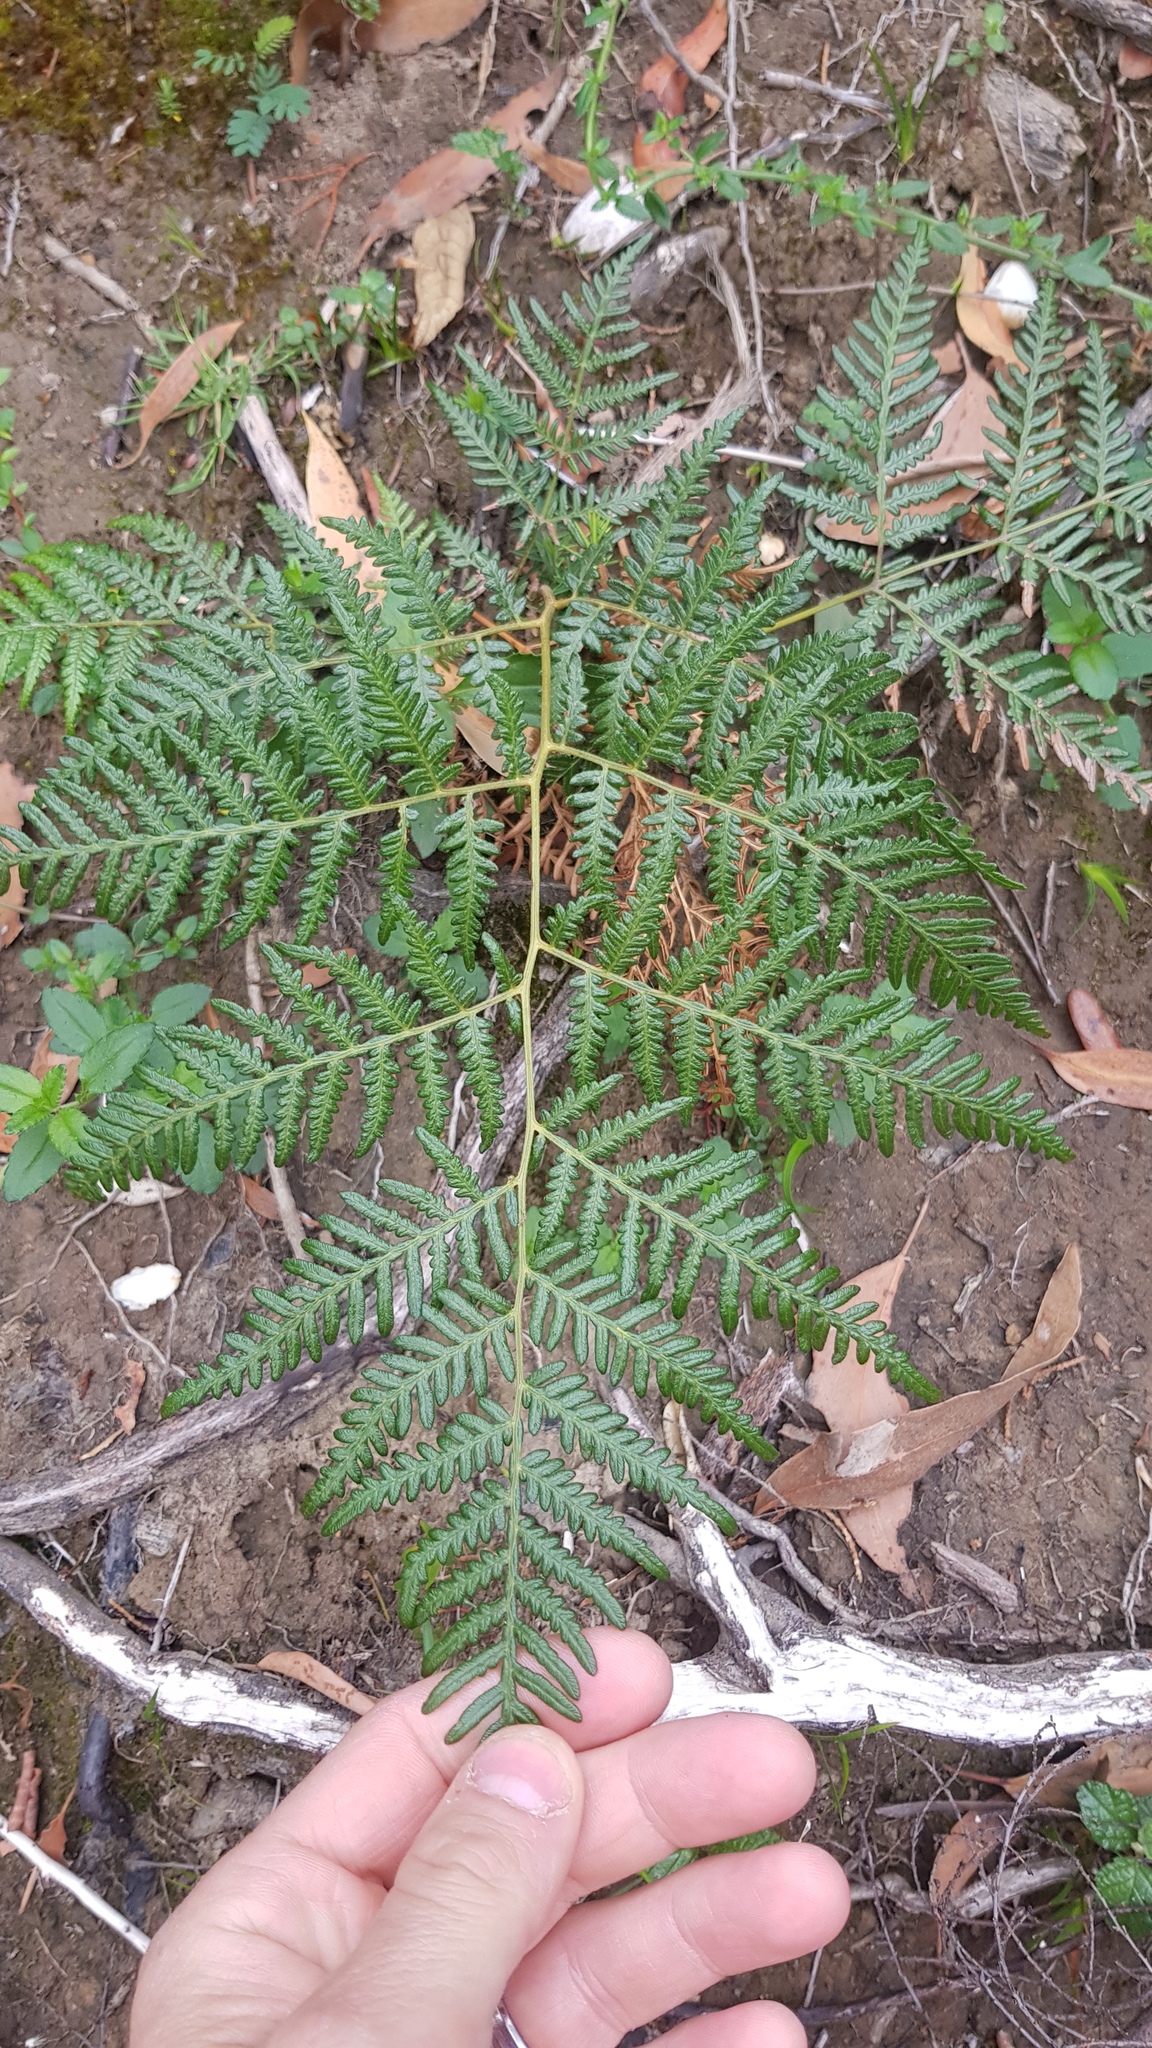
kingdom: Plantae
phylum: Tracheophyta
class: Polypodiopsida
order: Polypodiales
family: Dennstaedtiaceae
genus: Pteridium
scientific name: Pteridium esculentum
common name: Bracken fern
